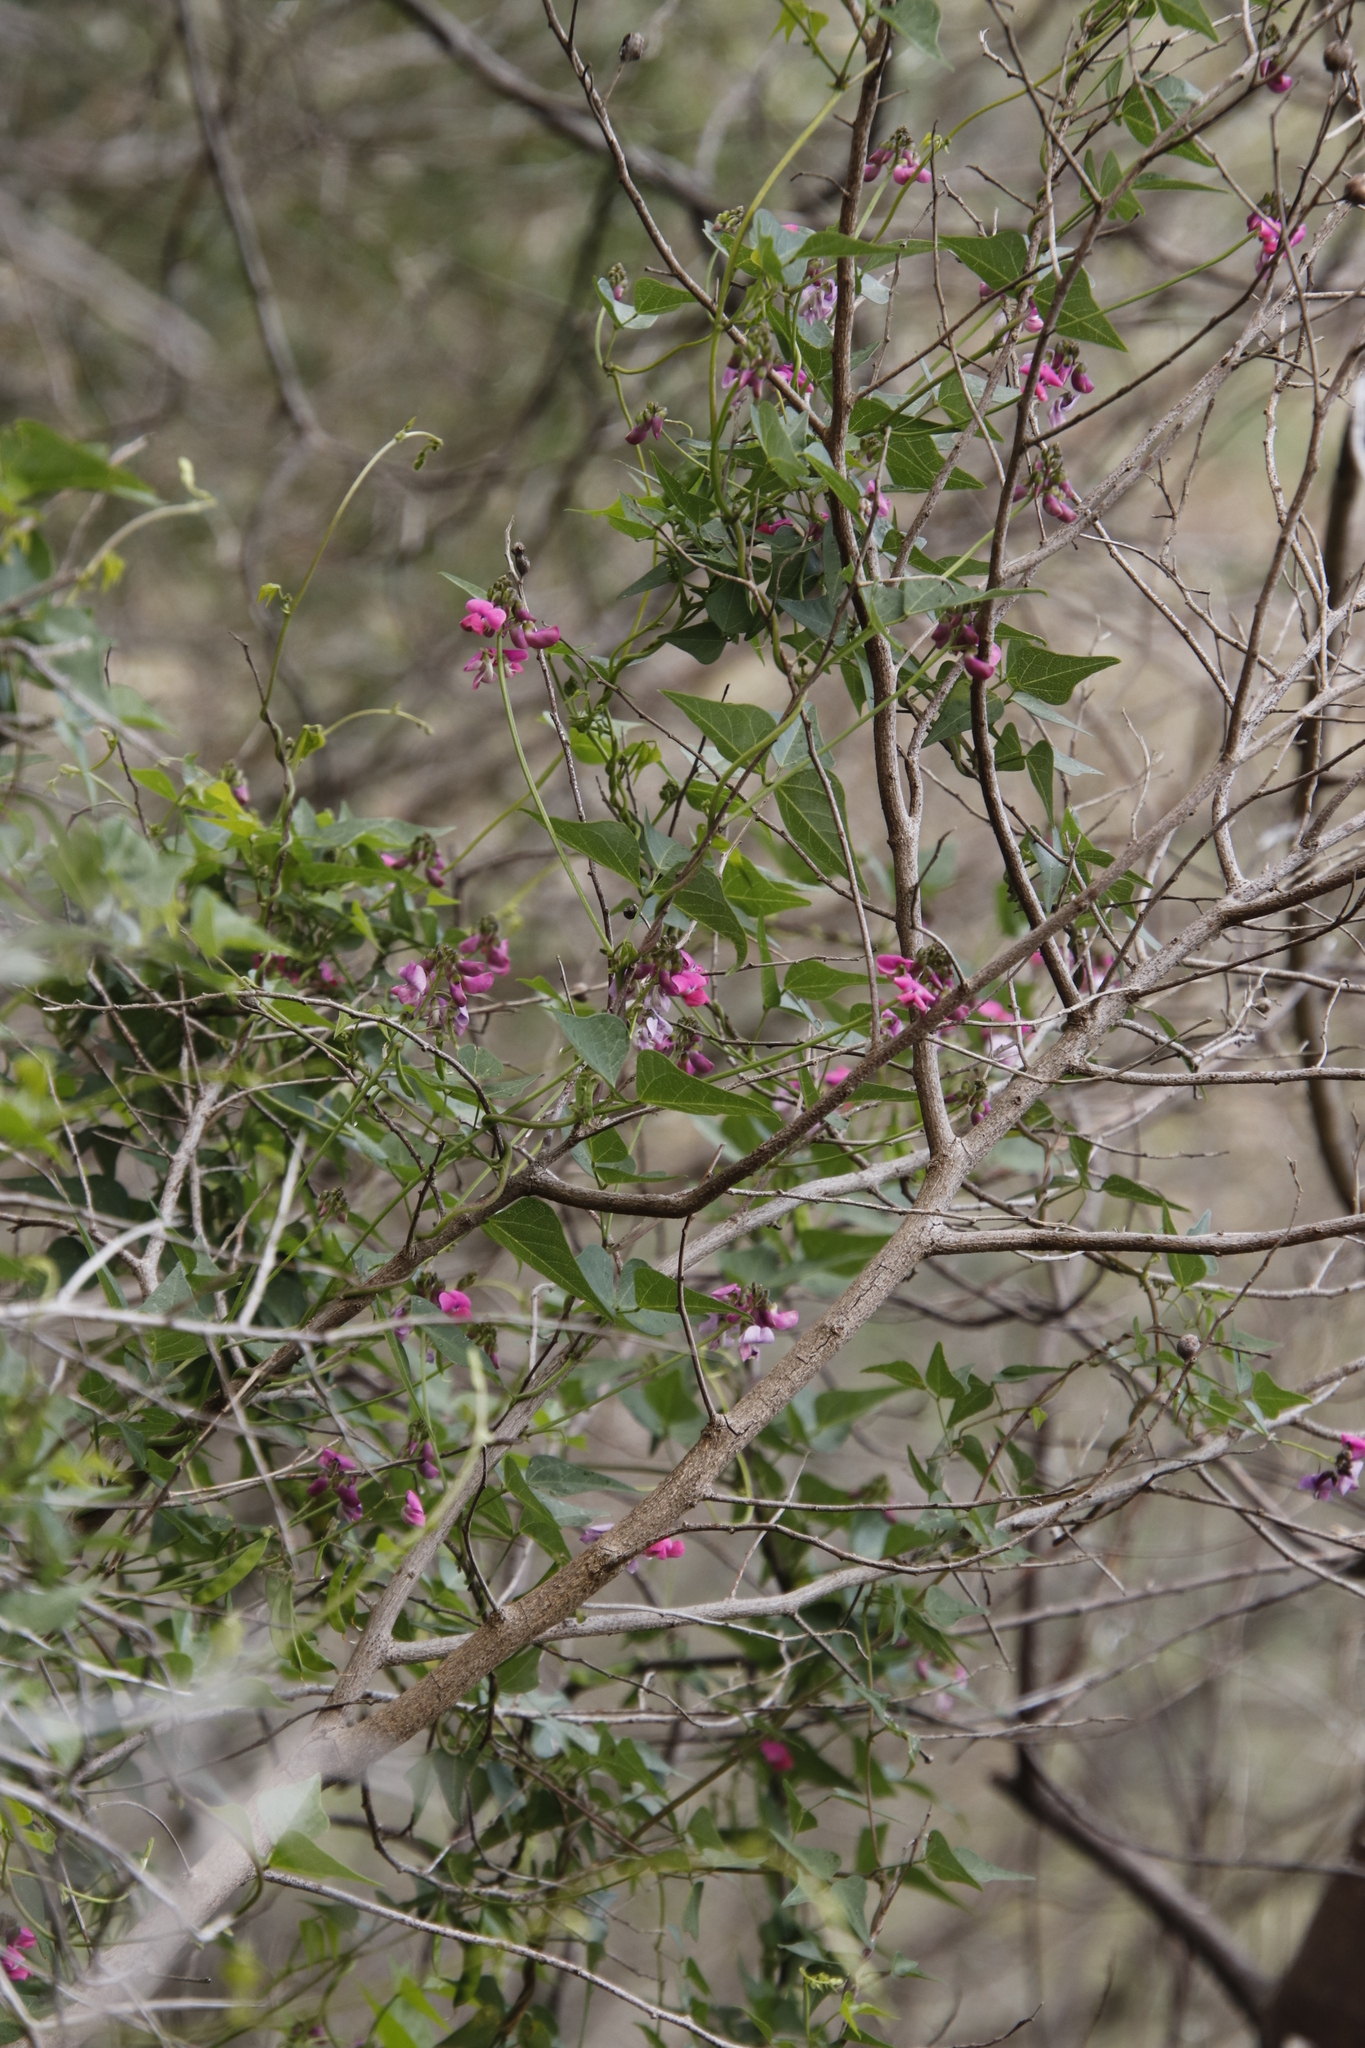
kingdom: Plantae
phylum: Tracheophyta
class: Magnoliopsida
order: Fabales
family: Fabaceae
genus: Dipogon
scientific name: Dipogon lignosus
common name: Okie bean
